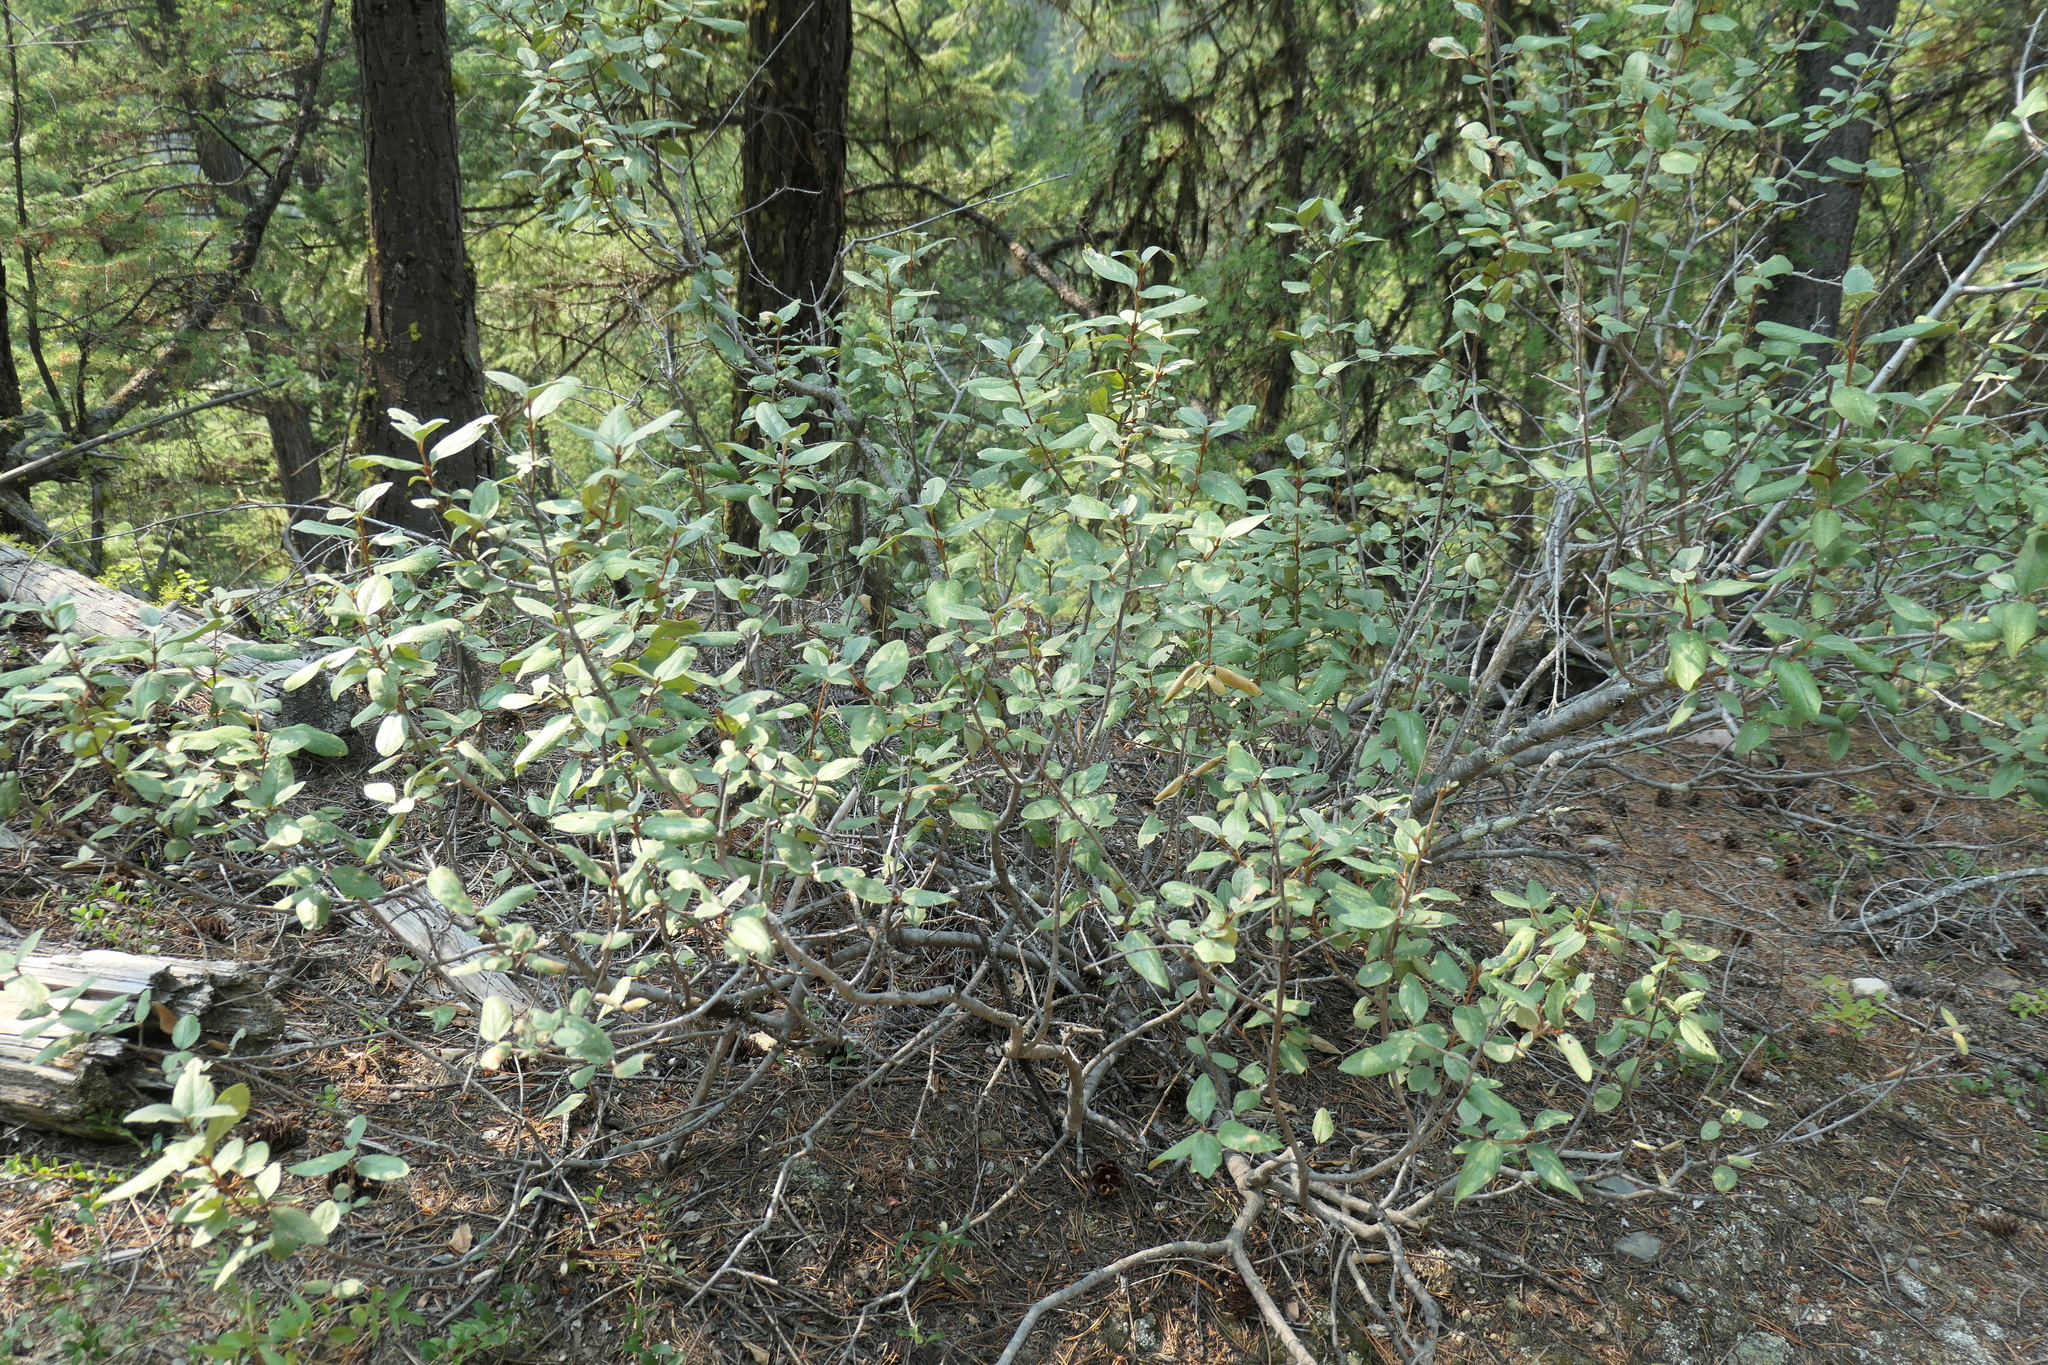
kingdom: Plantae
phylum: Tracheophyta
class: Magnoliopsida
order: Rosales
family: Elaeagnaceae
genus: Shepherdia
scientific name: Shepherdia canadensis
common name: Soapberry
